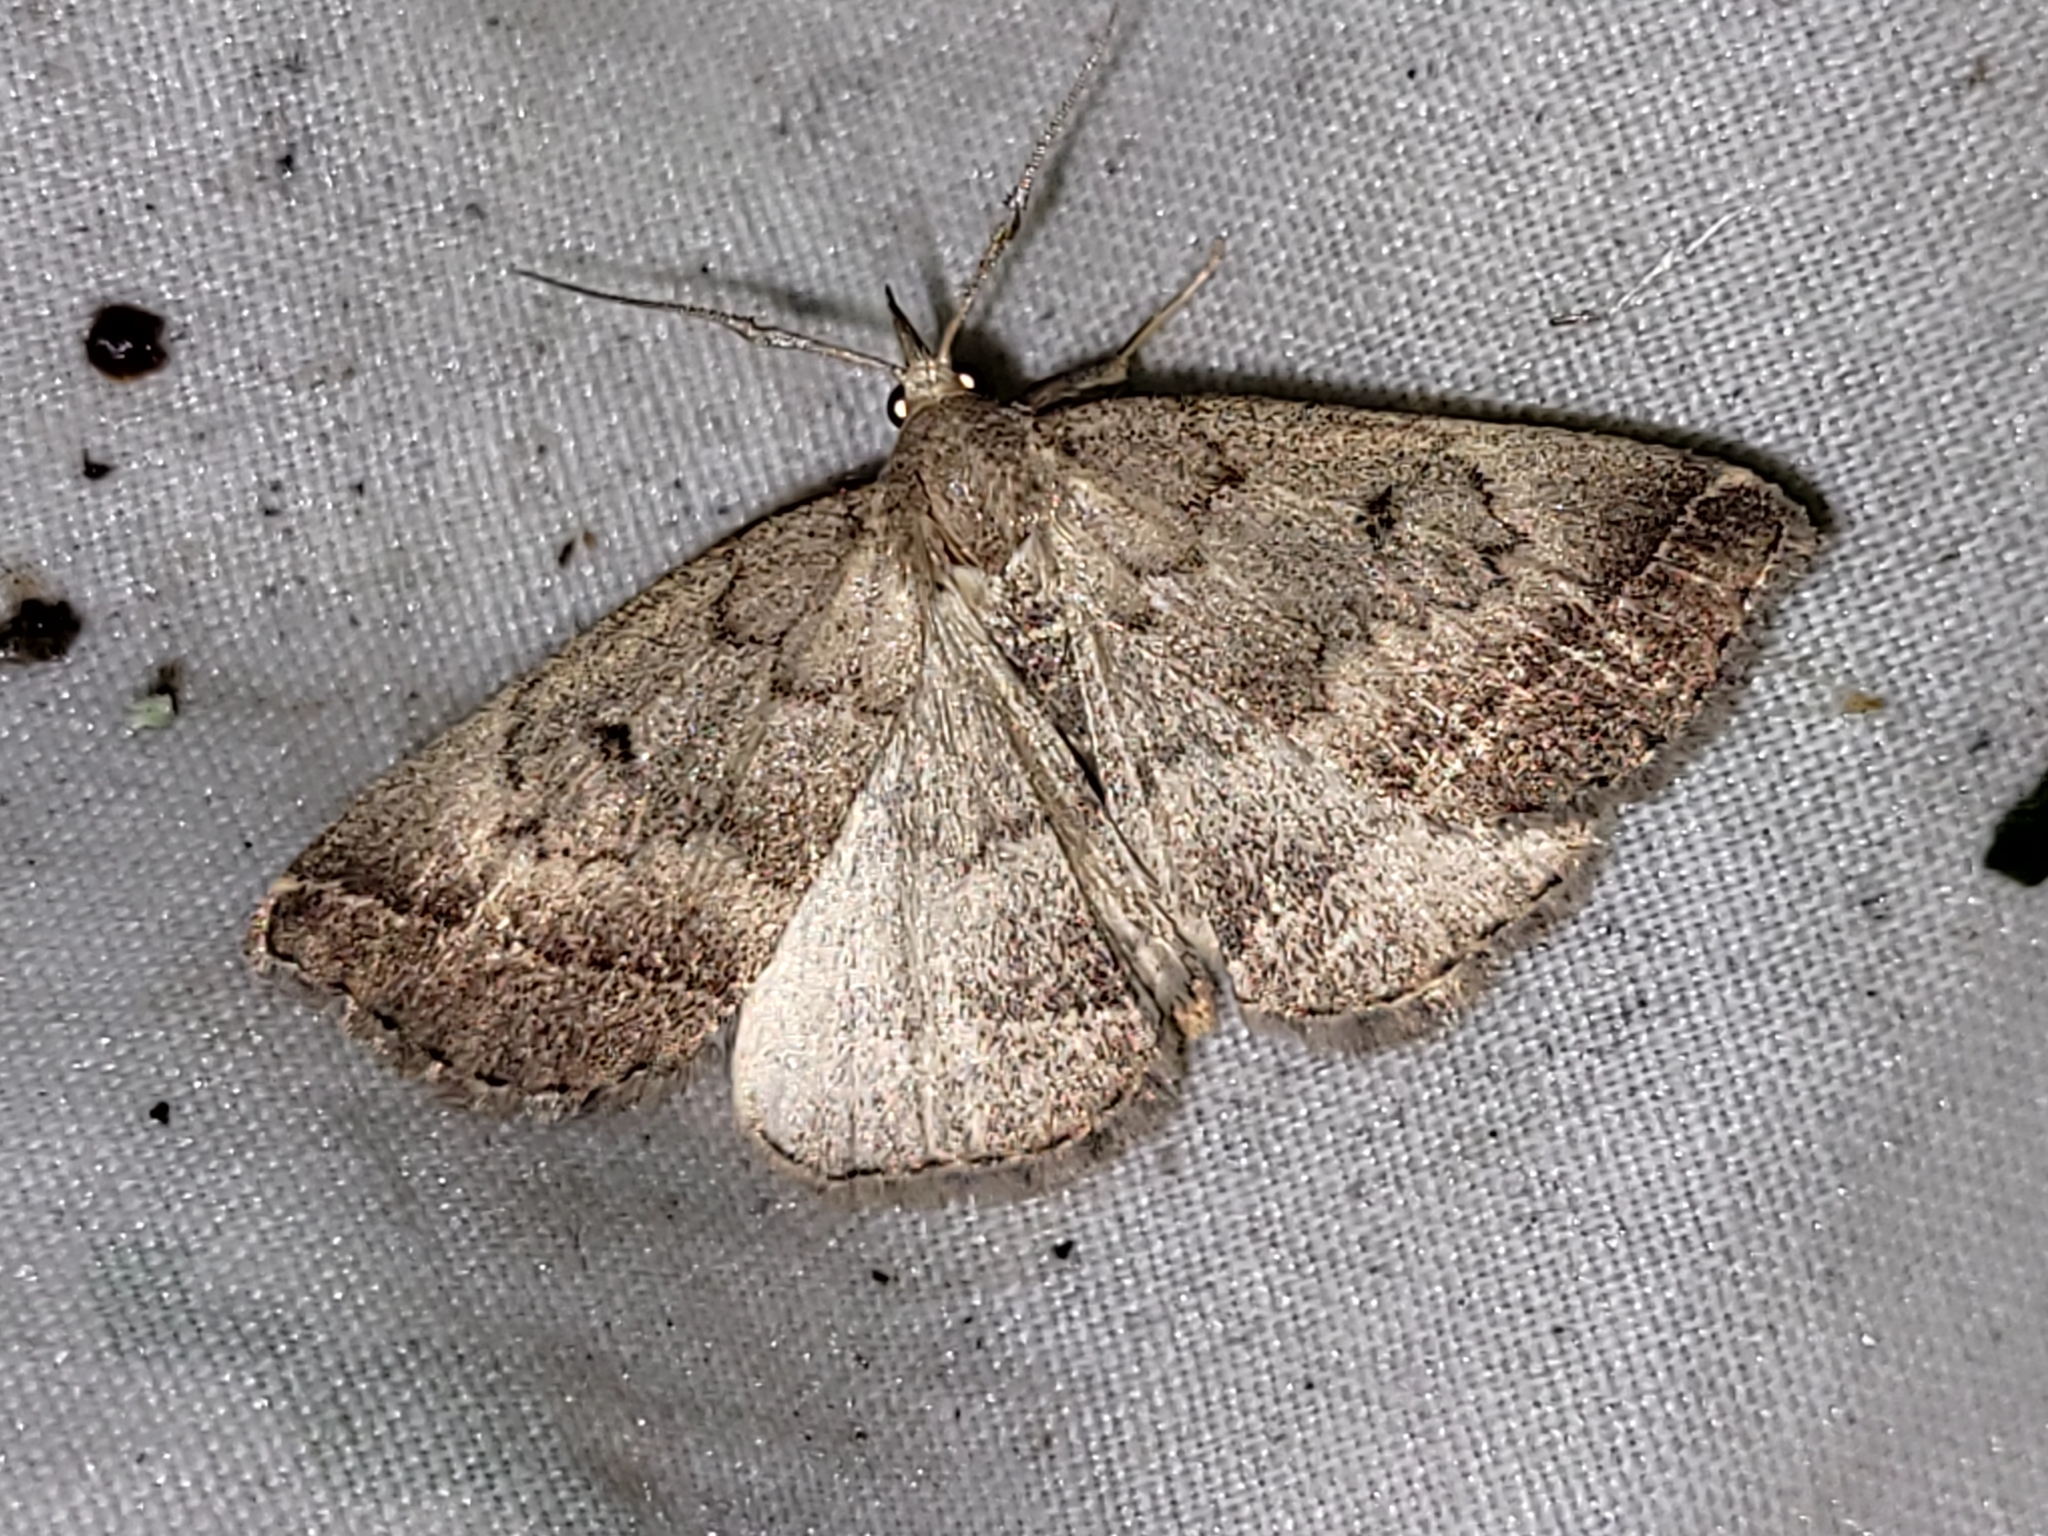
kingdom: Animalia
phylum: Arthropoda
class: Insecta
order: Lepidoptera
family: Erebidae
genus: Zanclognatha
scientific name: Zanclognatha jacchusalis
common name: Yellowish zanclognatha
